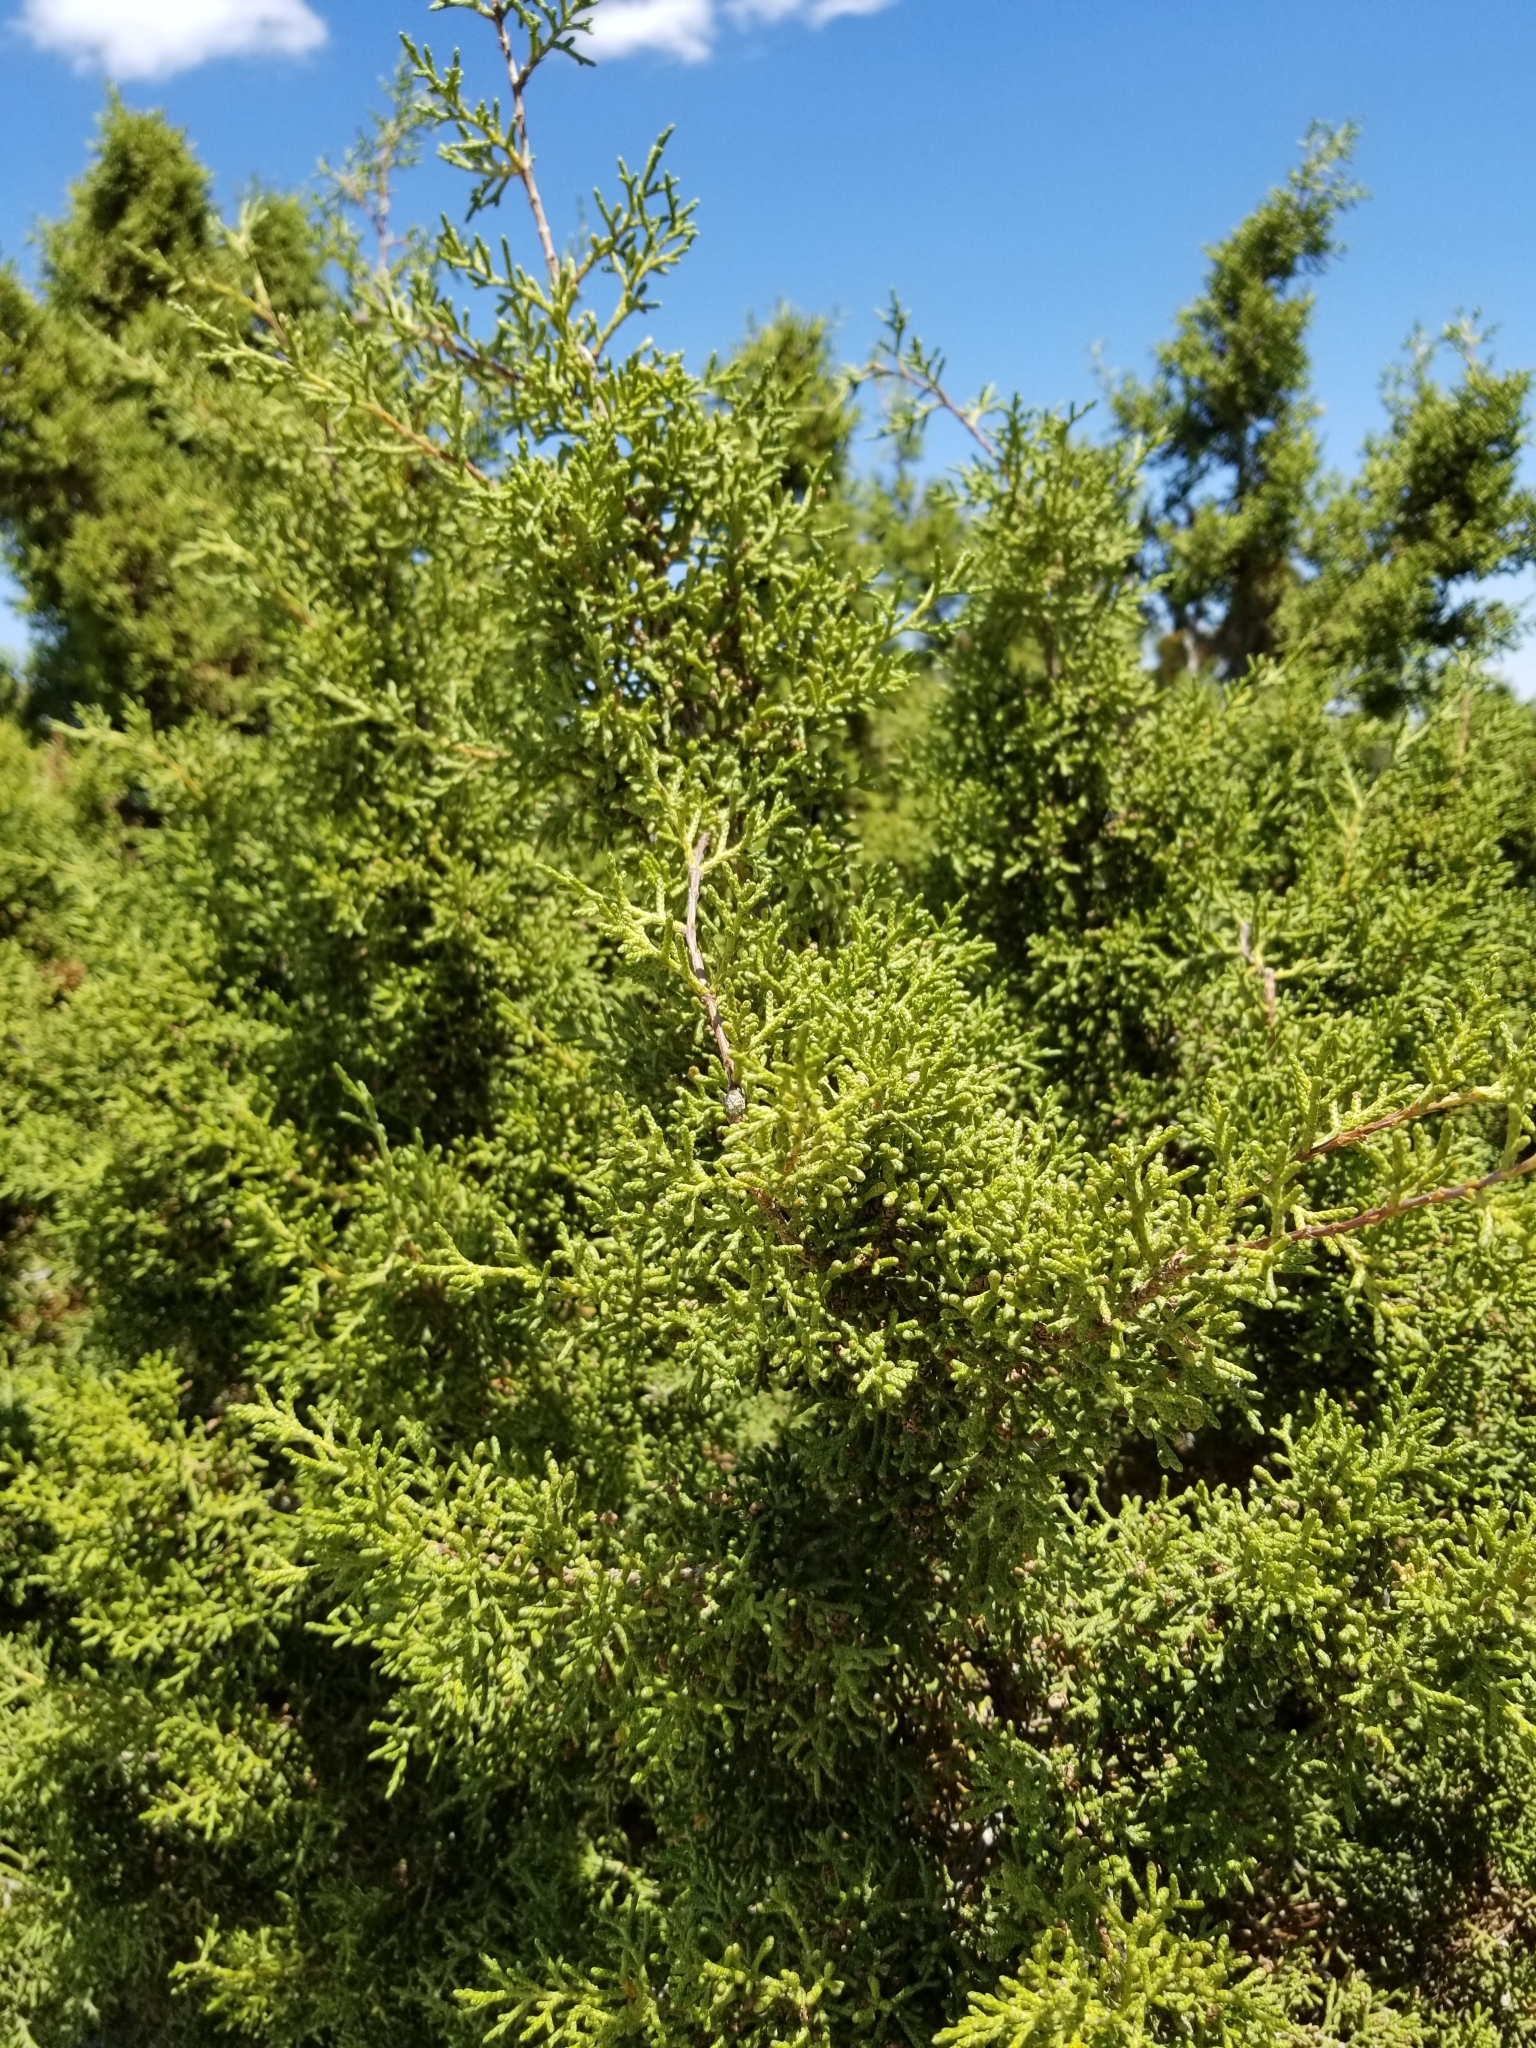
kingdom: Plantae
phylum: Tracheophyta
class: Pinopsida
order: Pinales
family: Cupressaceae
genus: Juniperus
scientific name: Juniperus californica
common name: California juniper
